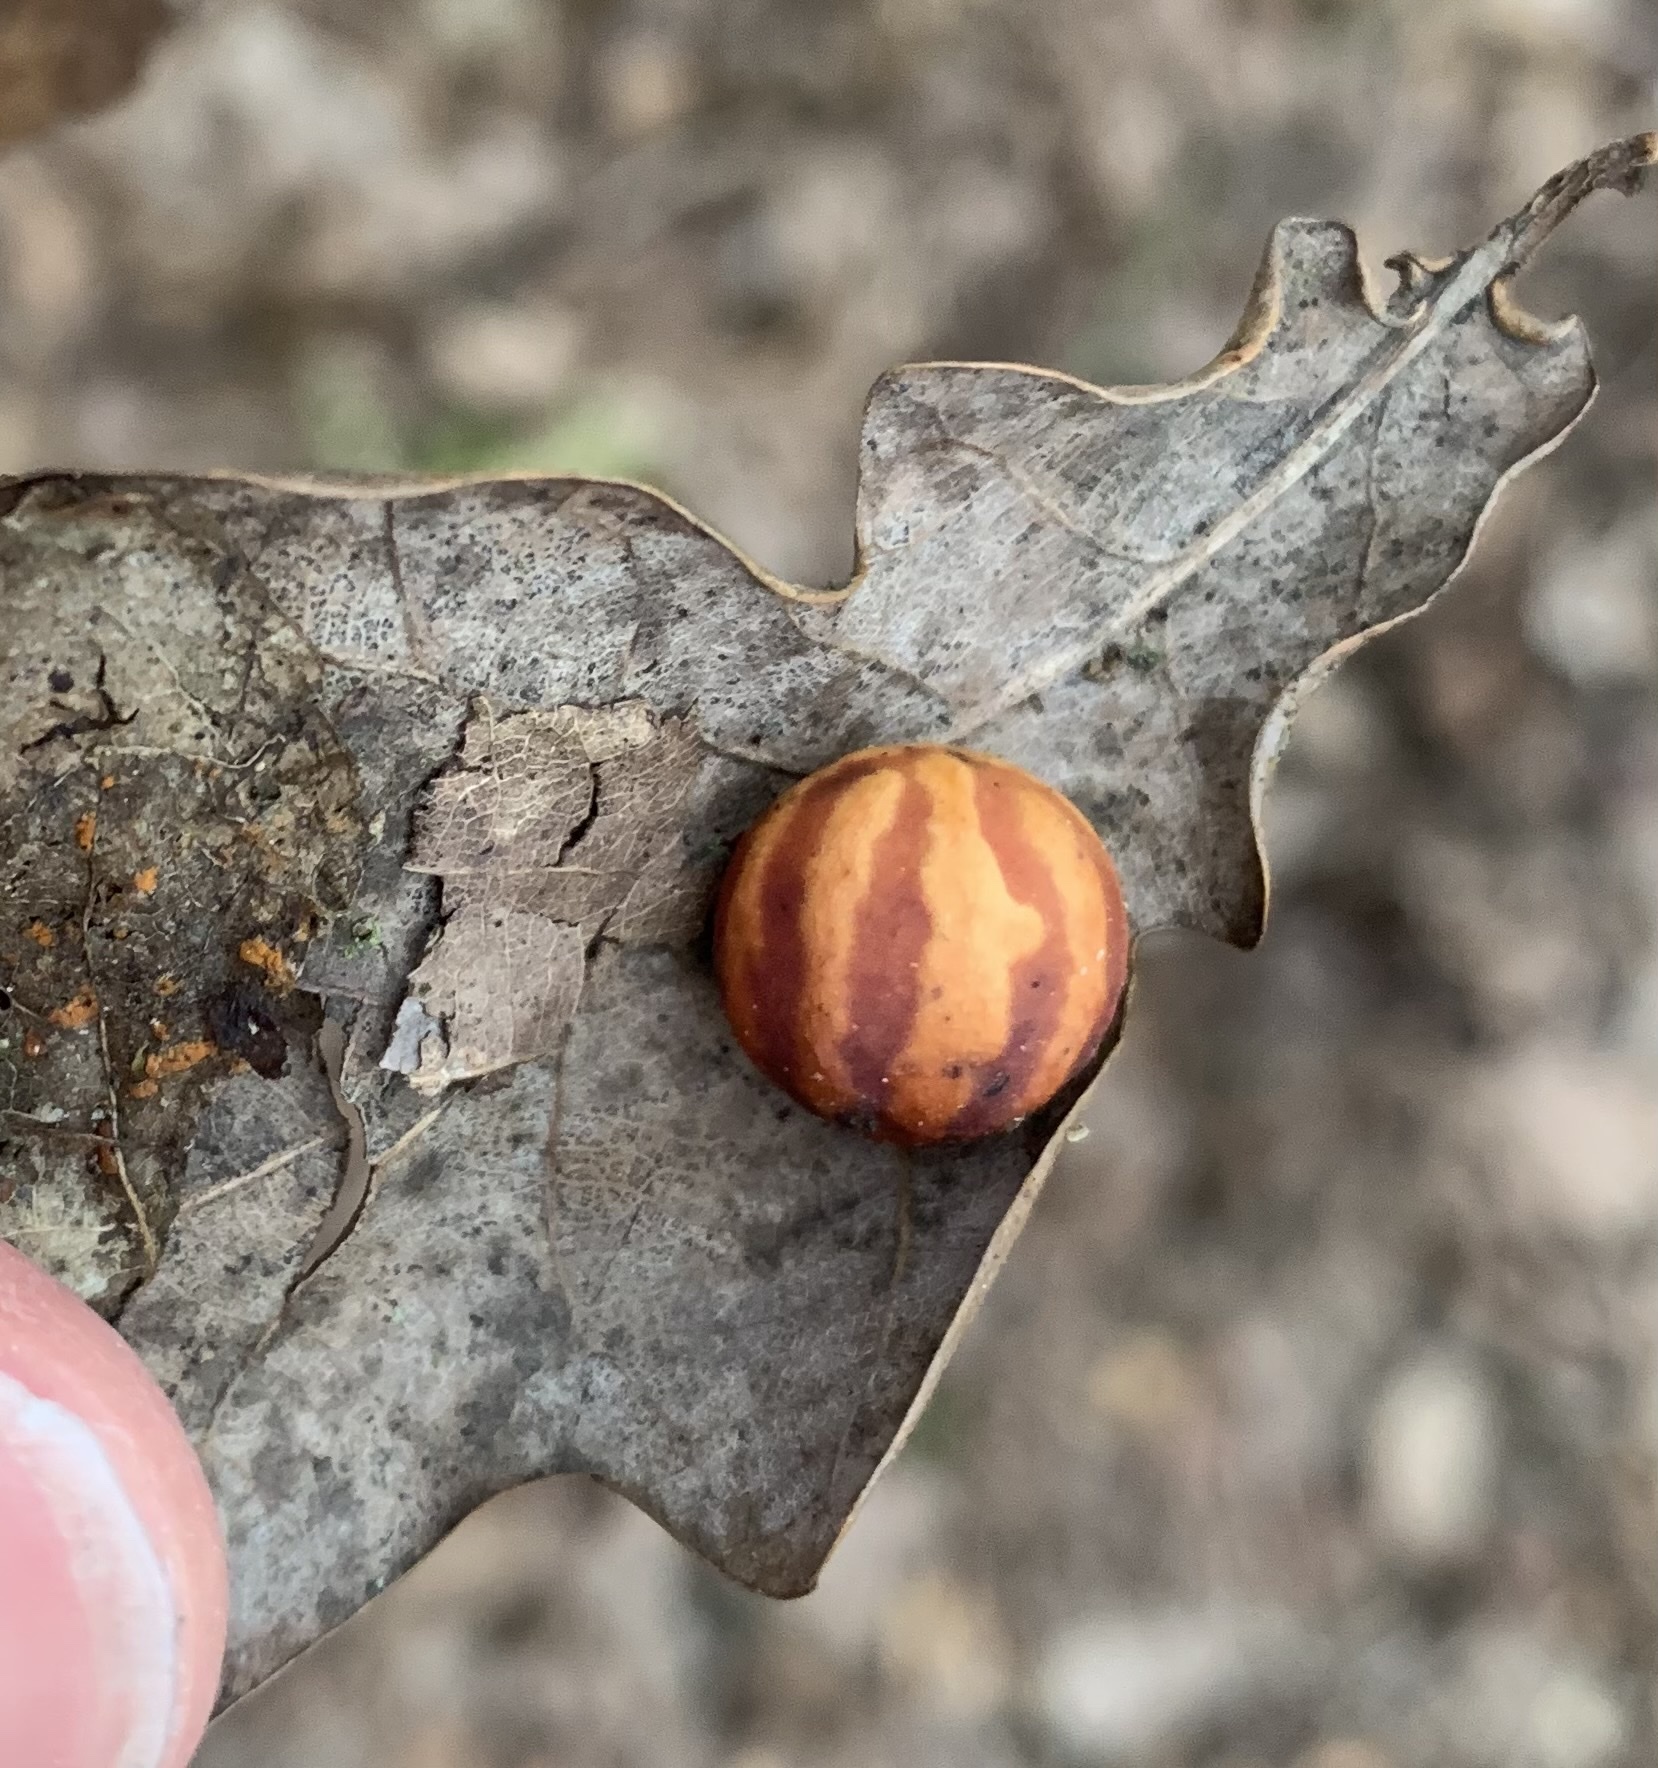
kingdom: Animalia
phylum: Arthropoda
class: Insecta
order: Hymenoptera
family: Cynipidae
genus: Cynips
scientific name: Cynips longiventris
